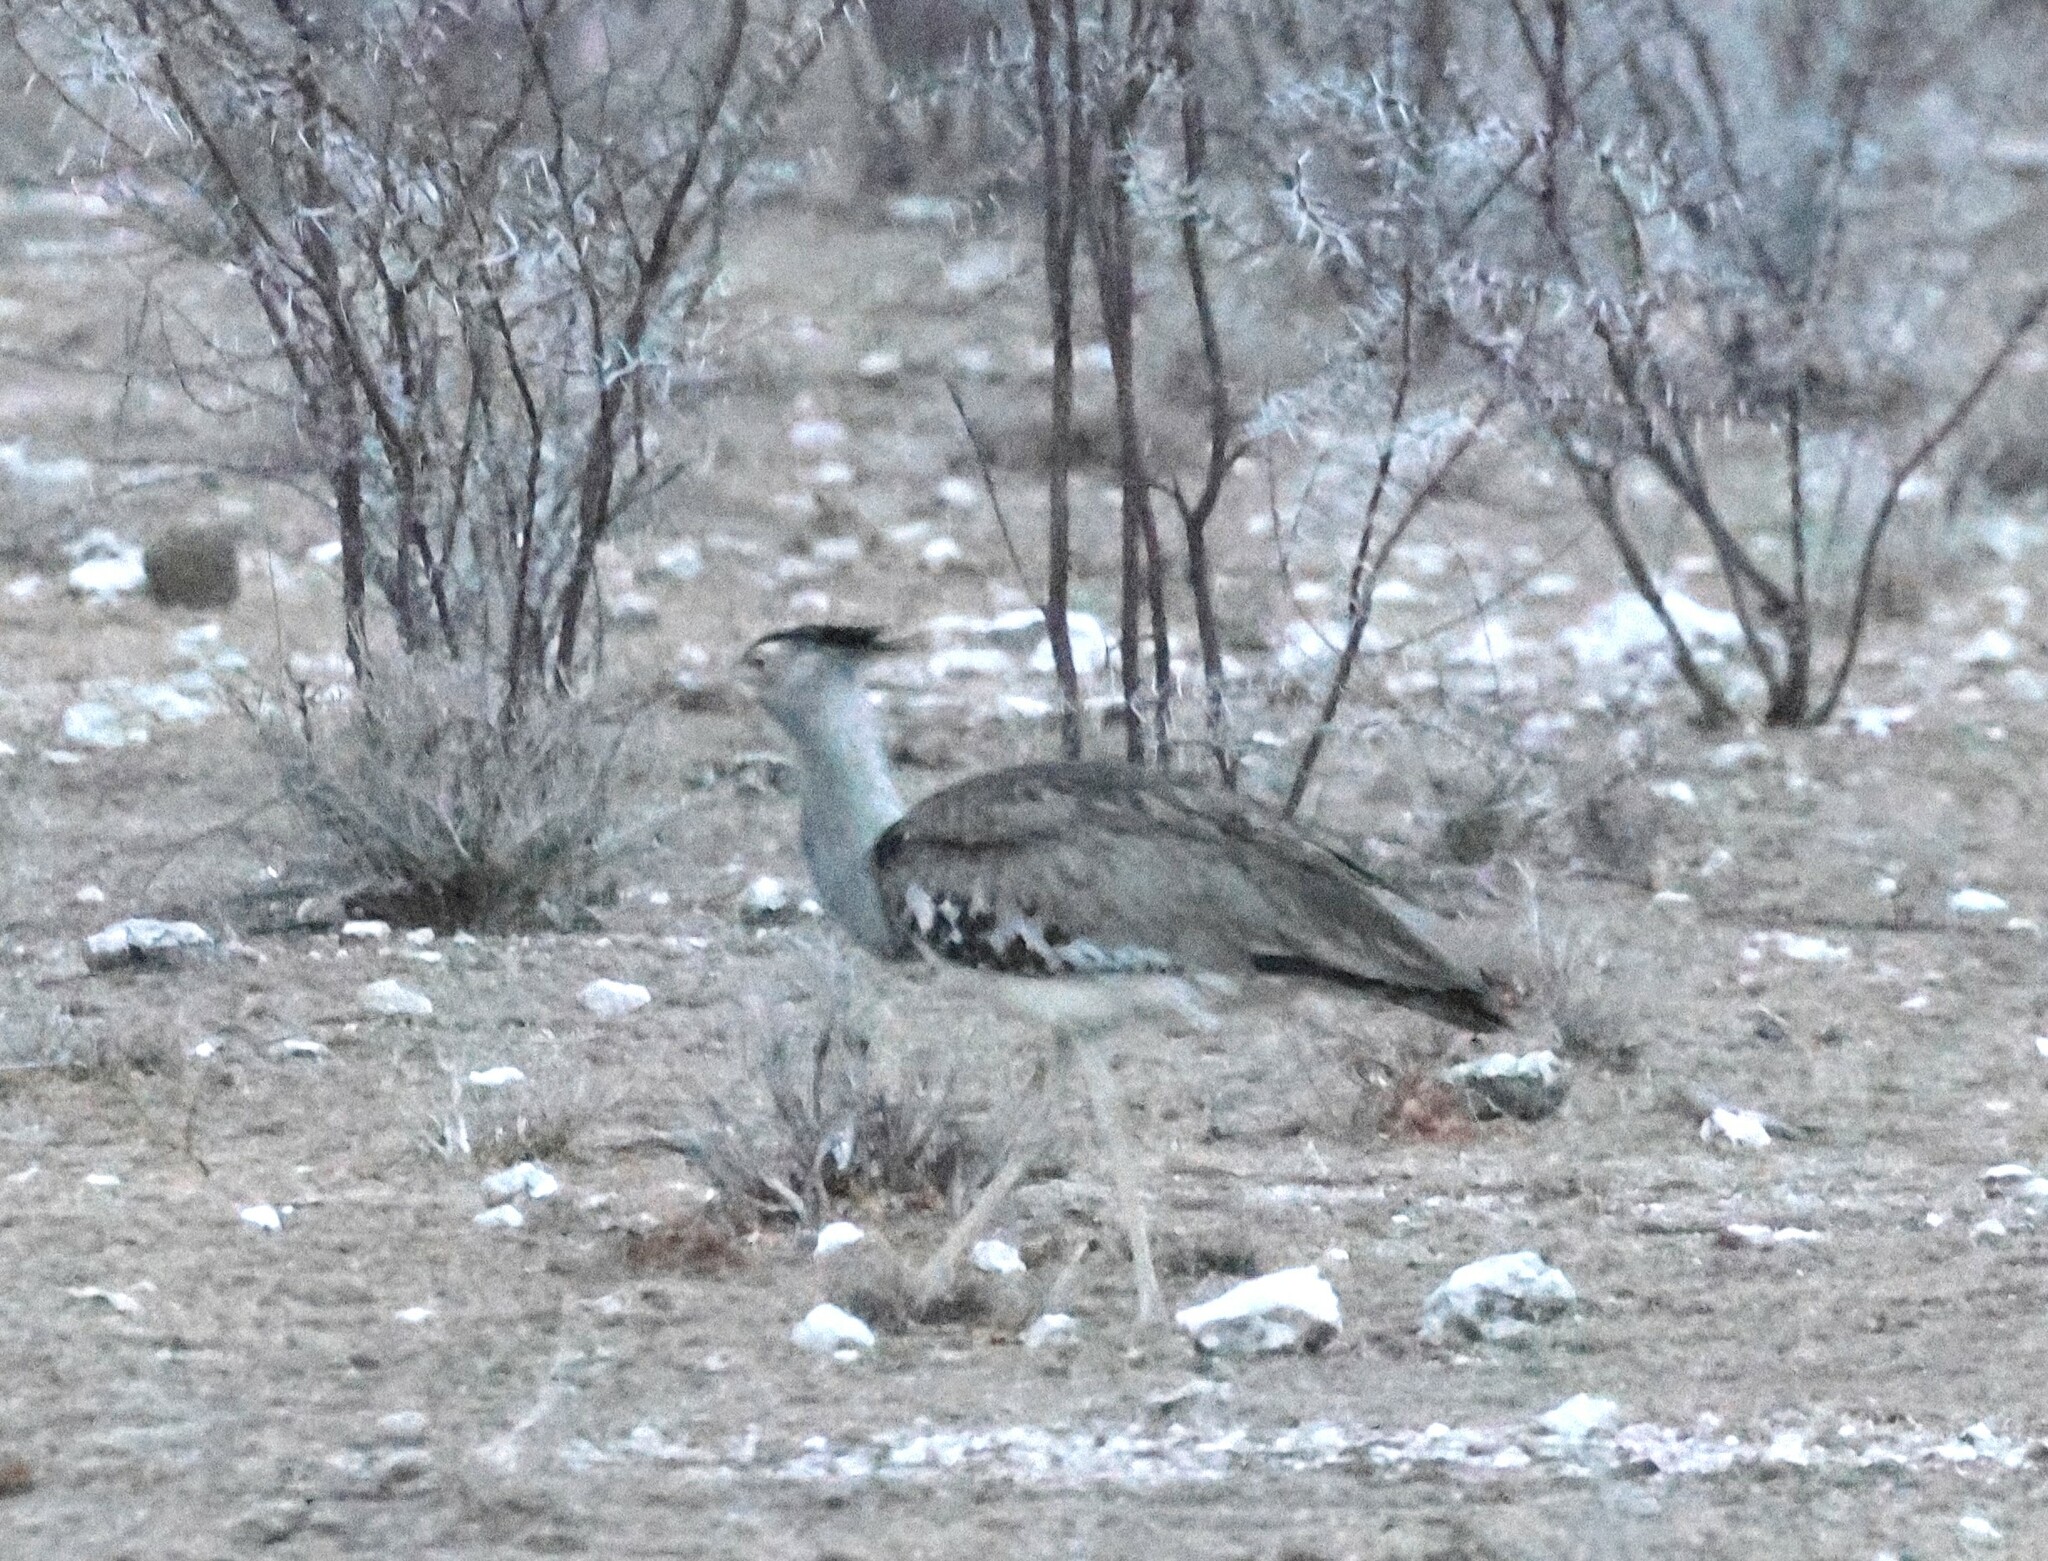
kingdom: Animalia
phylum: Chordata
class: Aves
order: Otidiformes
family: Otididae
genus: Ardeotis
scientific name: Ardeotis kori
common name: Kori bustard
